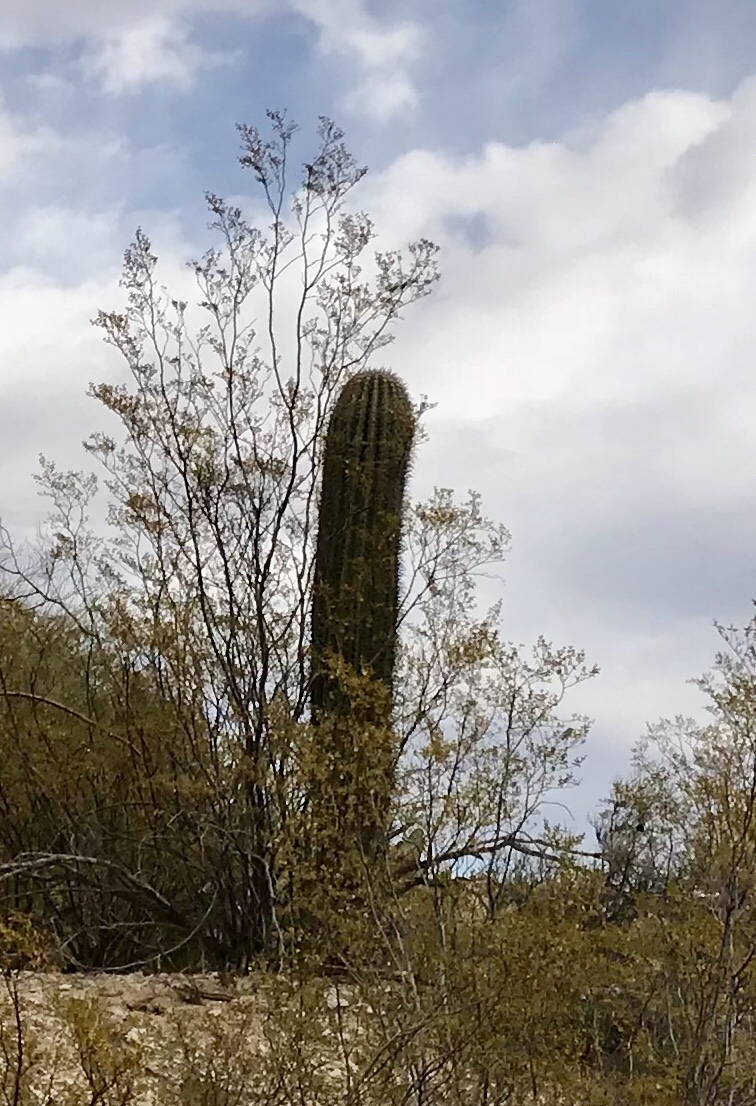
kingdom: Plantae
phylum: Tracheophyta
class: Magnoliopsida
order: Caryophyllales
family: Cactaceae
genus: Carnegiea
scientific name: Carnegiea gigantea
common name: Saguaro
